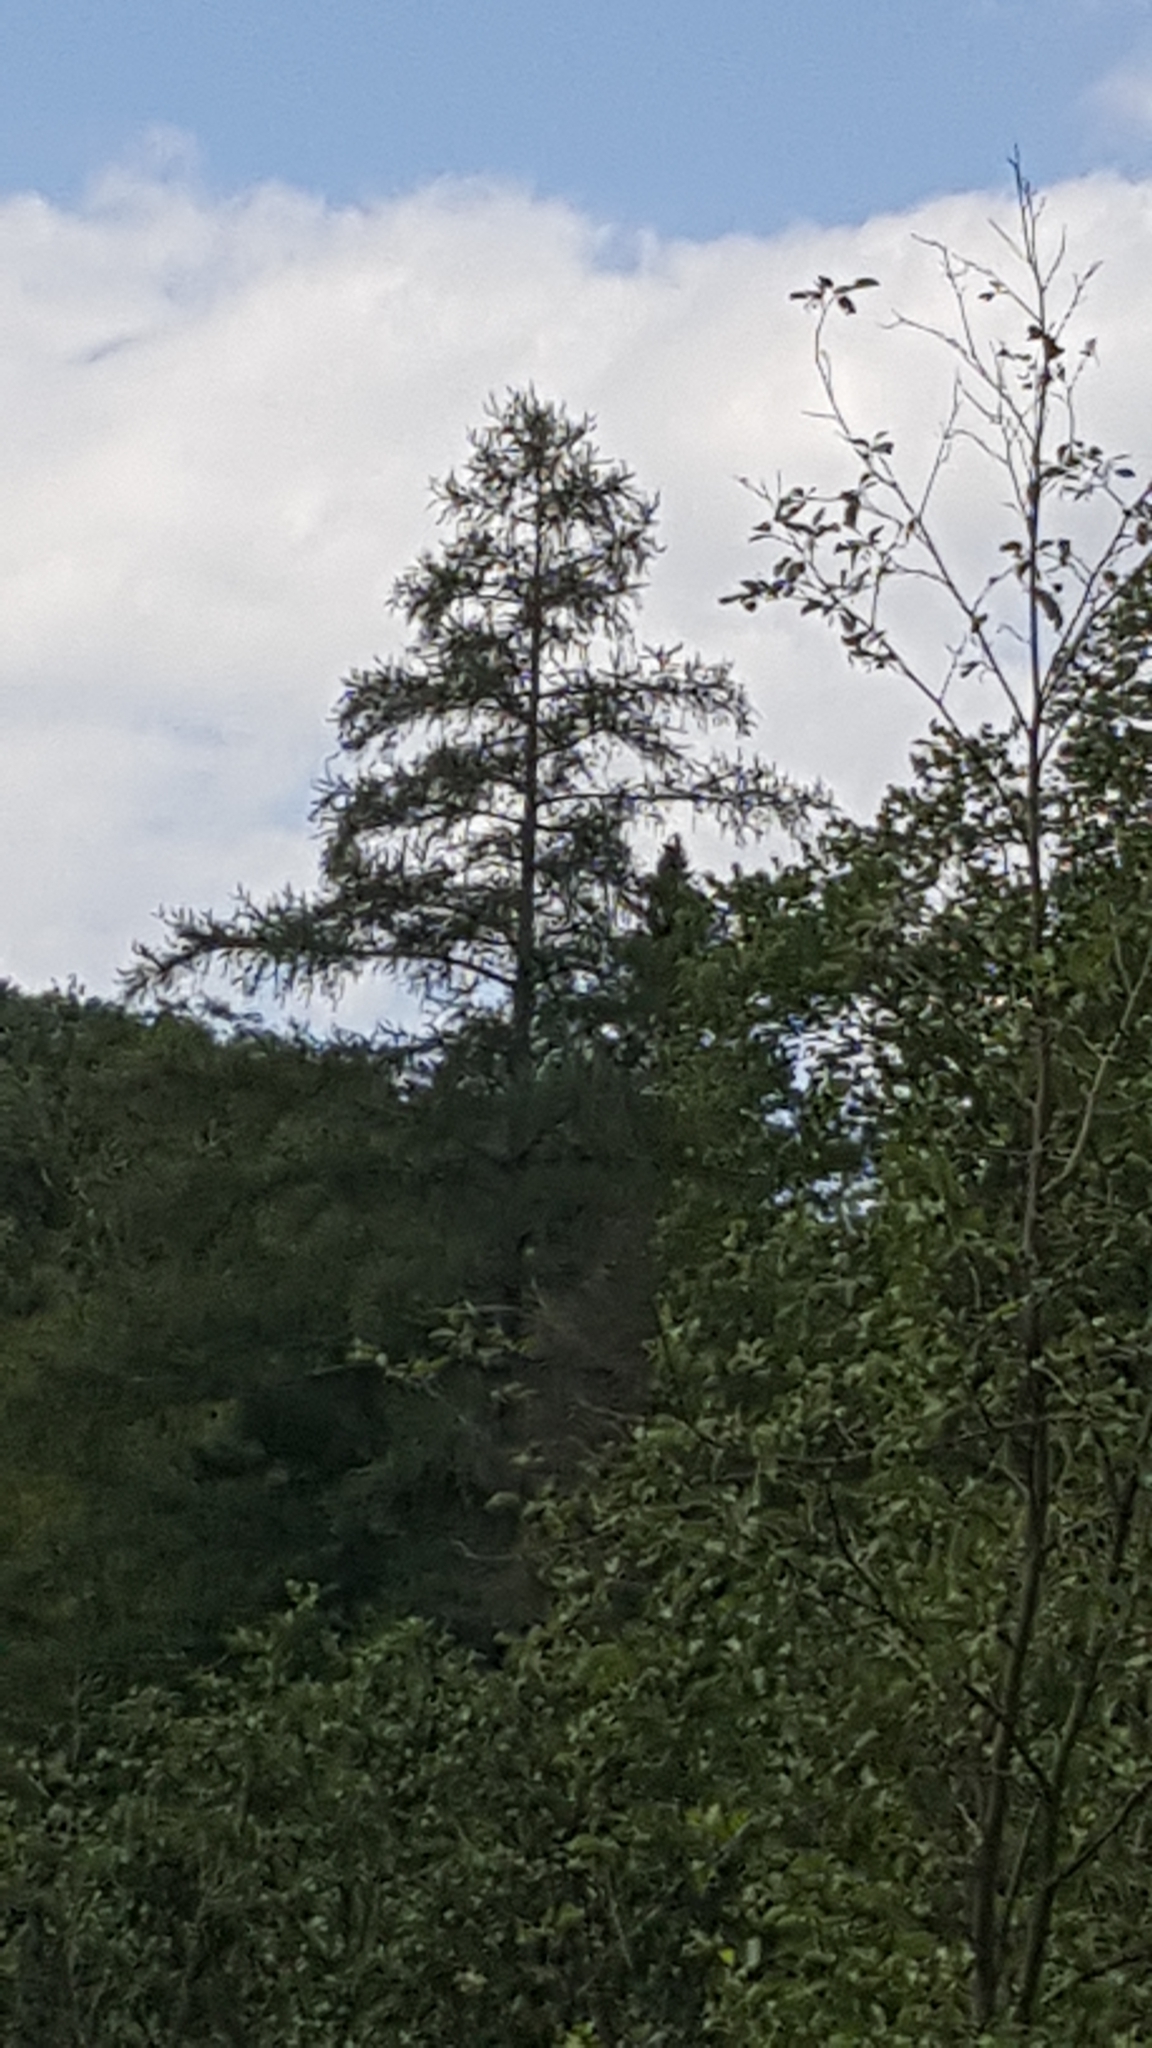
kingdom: Plantae
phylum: Tracheophyta
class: Pinopsida
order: Pinales
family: Pinaceae
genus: Larix
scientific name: Larix laricina
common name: American larch
